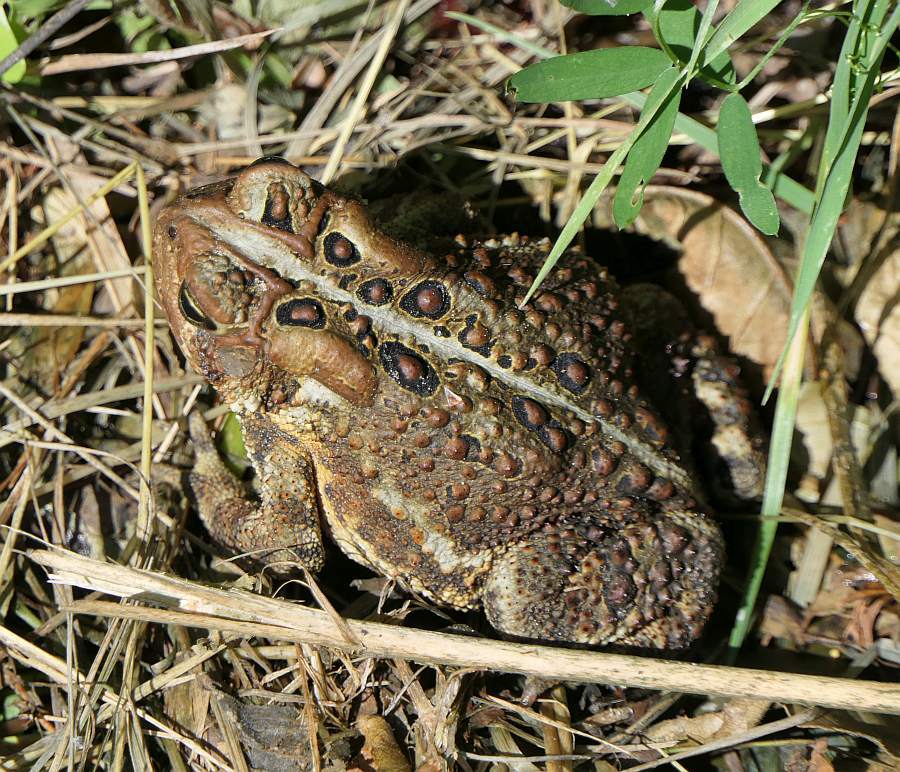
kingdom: Animalia
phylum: Chordata
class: Amphibia
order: Anura
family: Bufonidae
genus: Anaxyrus
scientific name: Anaxyrus americanus
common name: American toad
